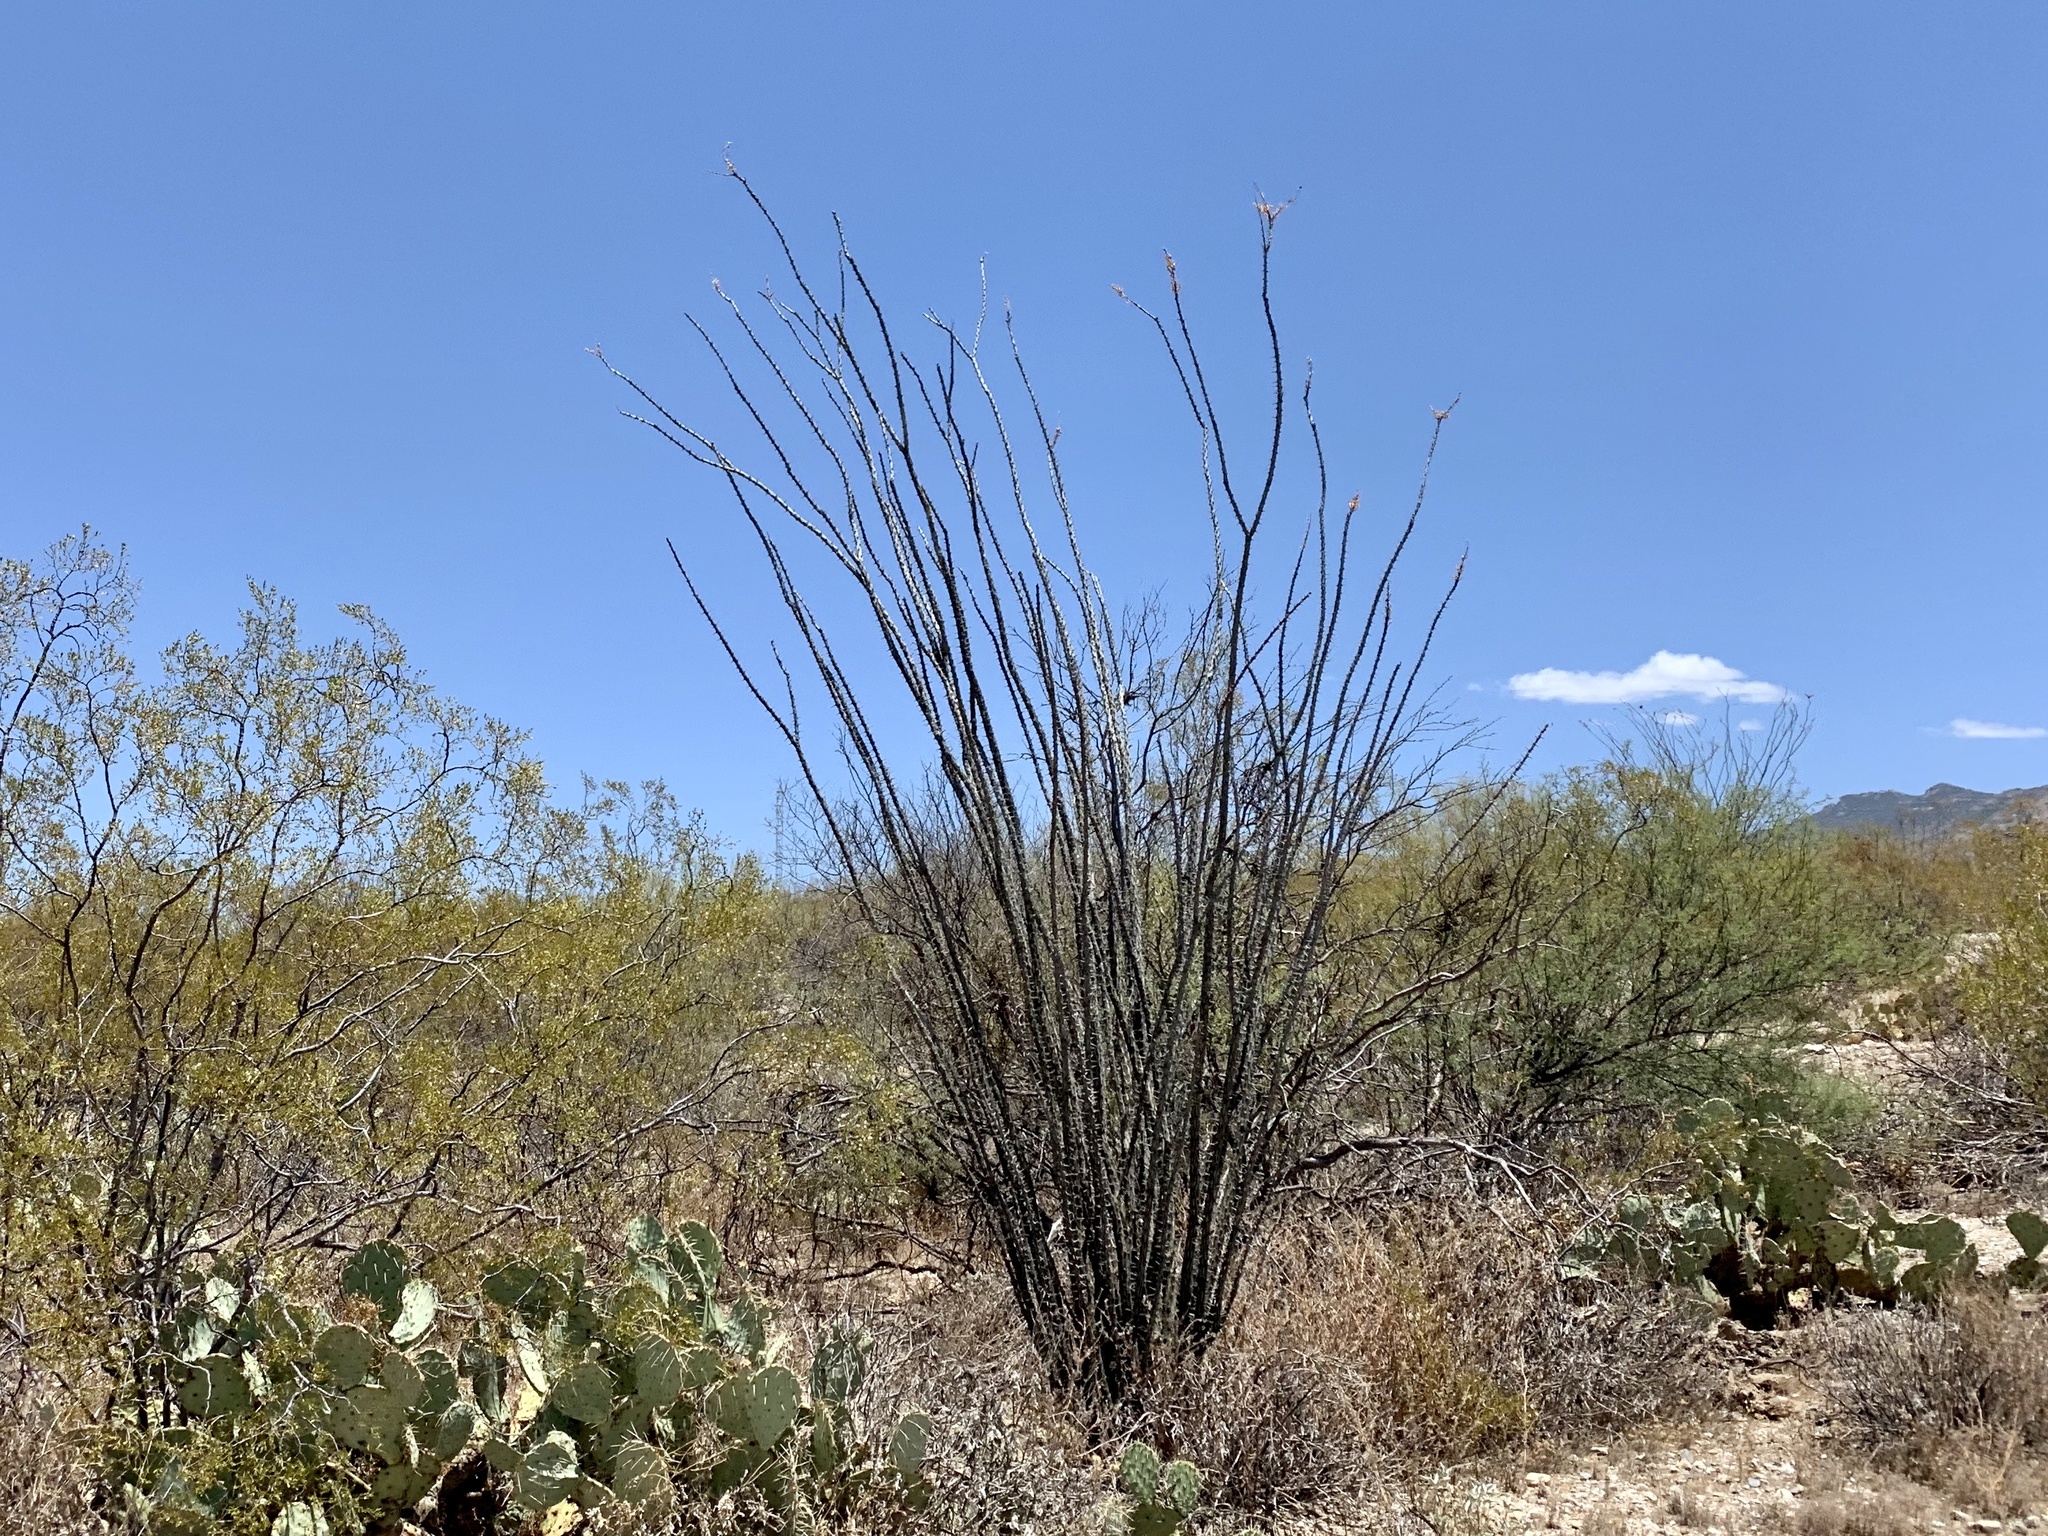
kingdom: Plantae
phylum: Tracheophyta
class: Magnoliopsida
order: Ericales
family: Fouquieriaceae
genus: Fouquieria
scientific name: Fouquieria splendens
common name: Vine-cactus
